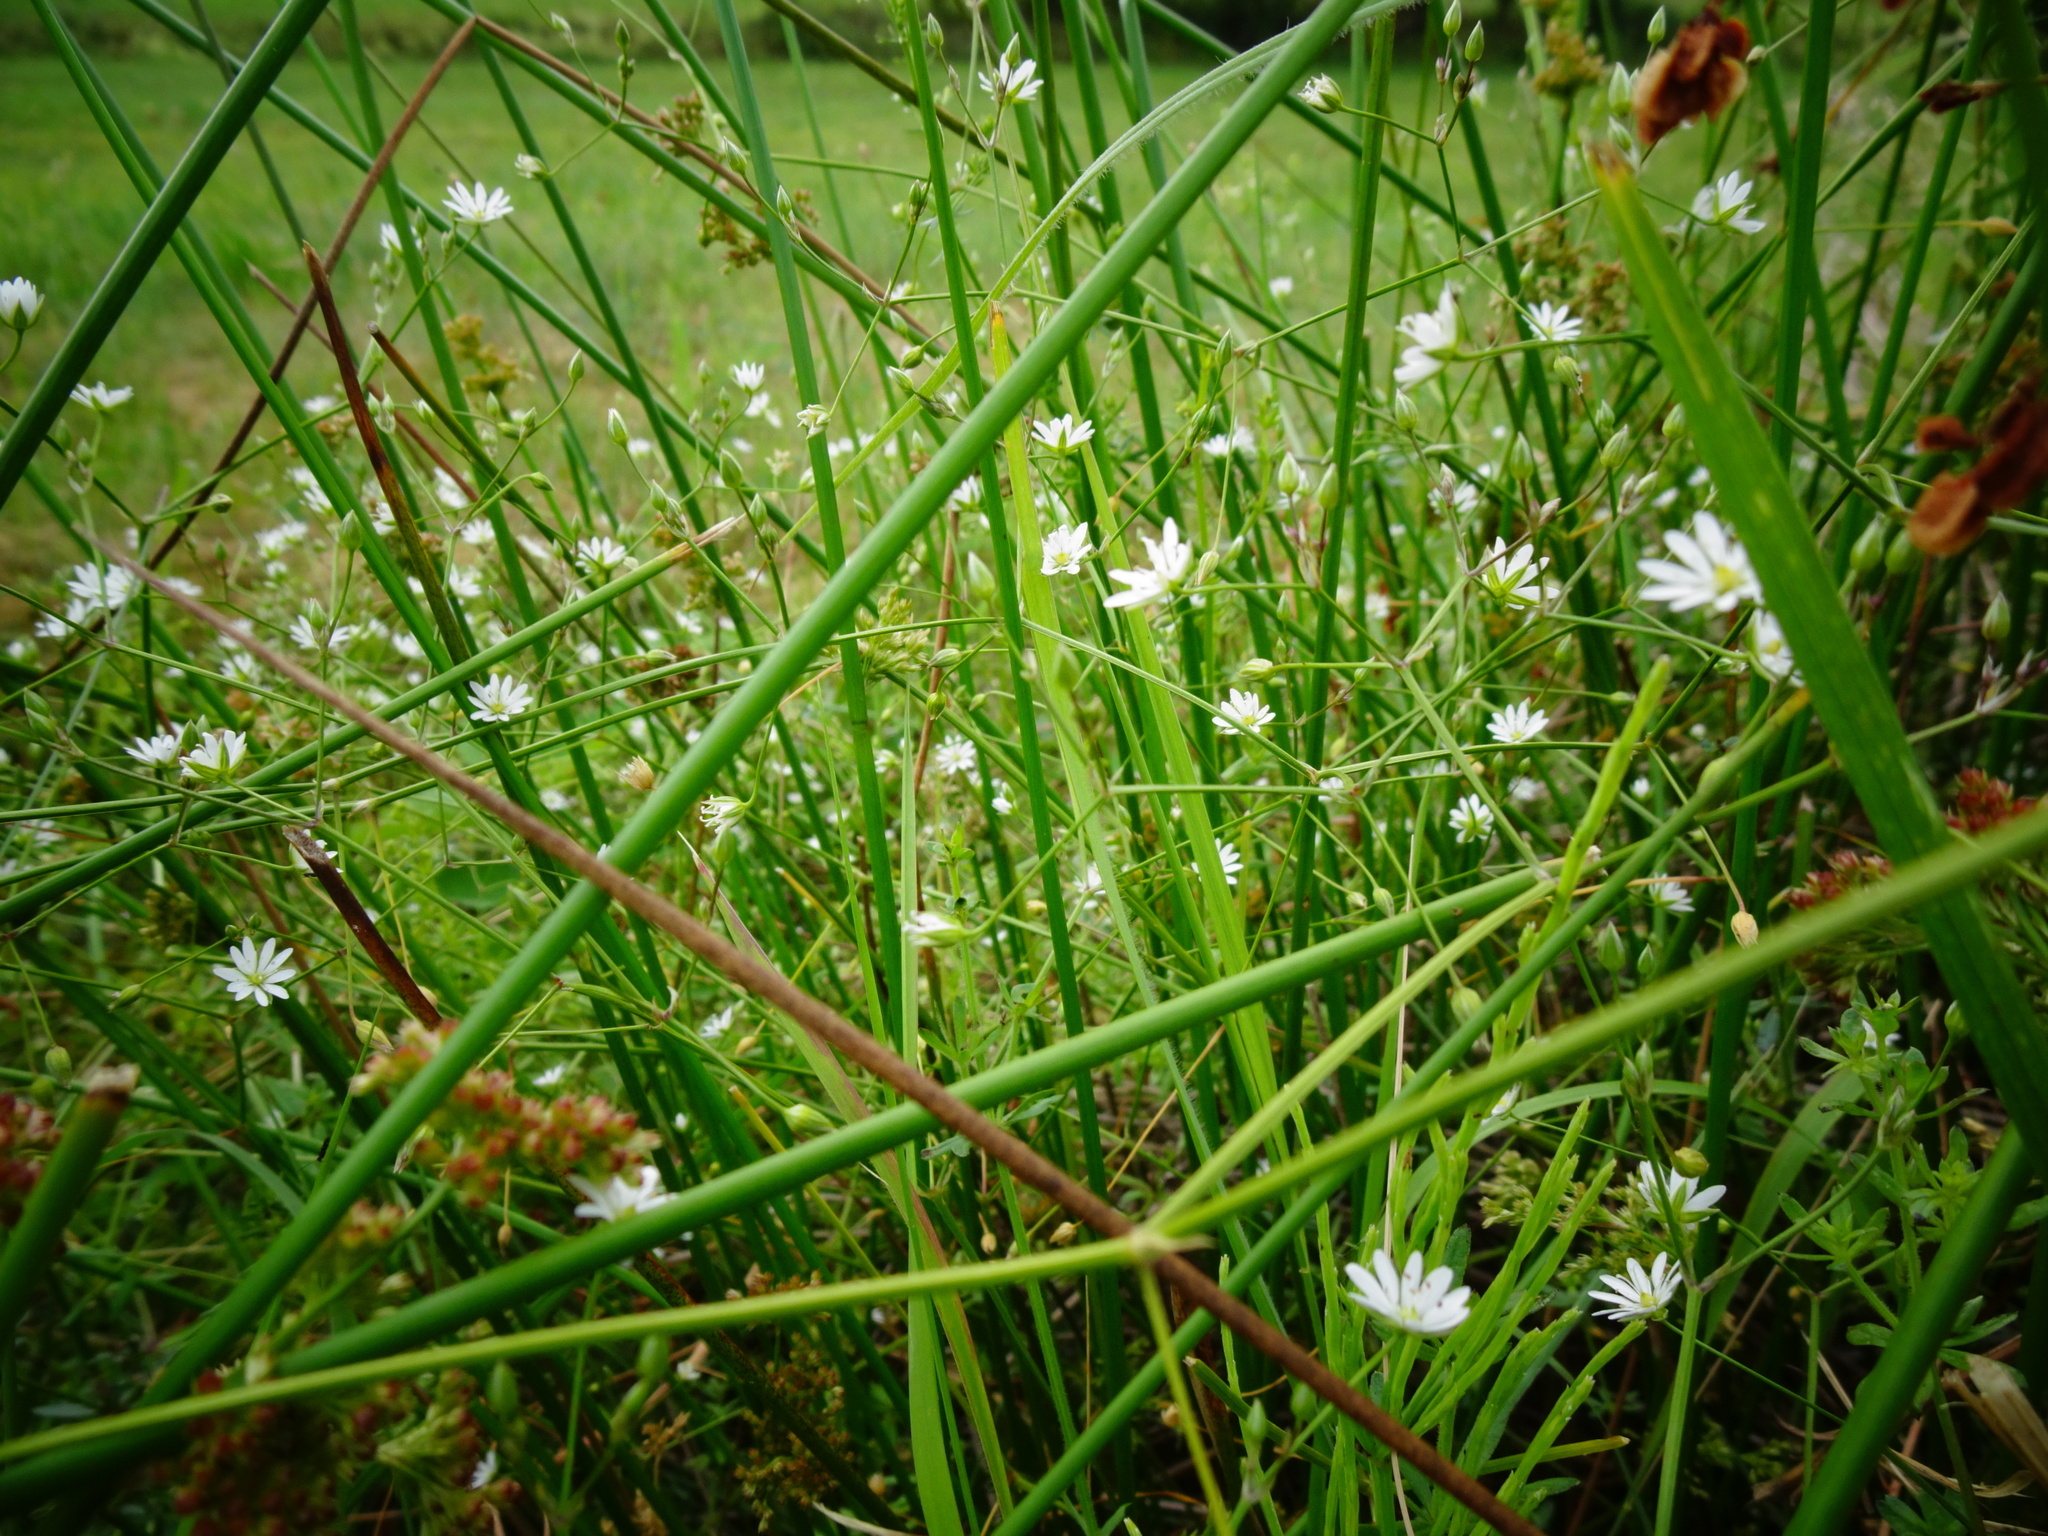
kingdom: Plantae
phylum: Tracheophyta
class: Magnoliopsida
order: Caryophyllales
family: Caryophyllaceae
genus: Stellaria
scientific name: Stellaria graminea
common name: Grass-like starwort
